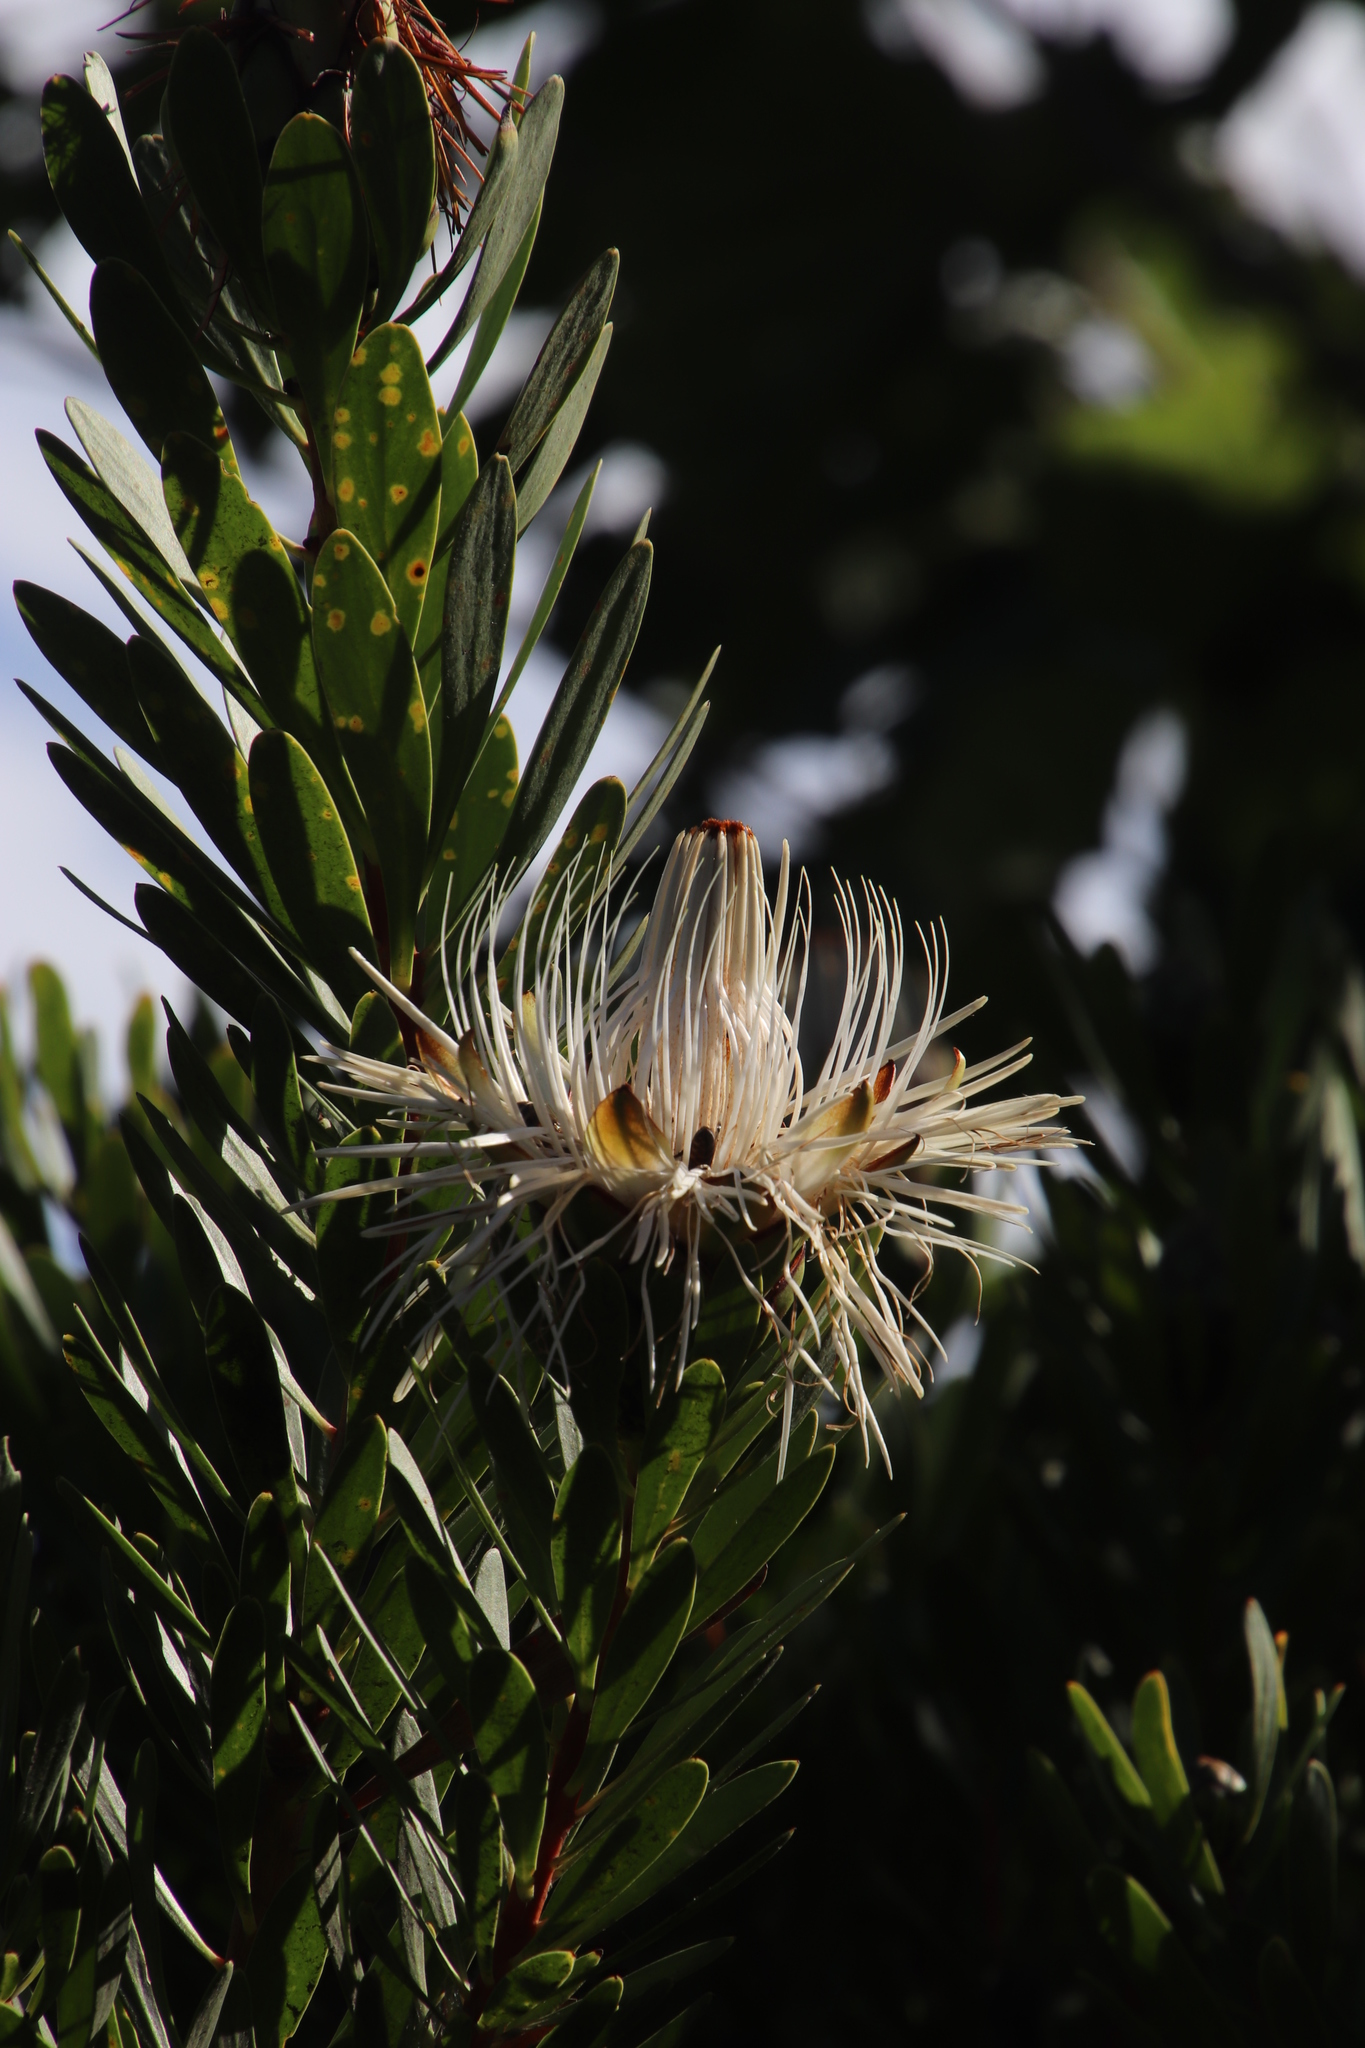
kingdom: Animalia
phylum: Arthropoda
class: Insecta
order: Hymenoptera
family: Apidae
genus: Apis
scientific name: Apis mellifera
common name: Honey bee
